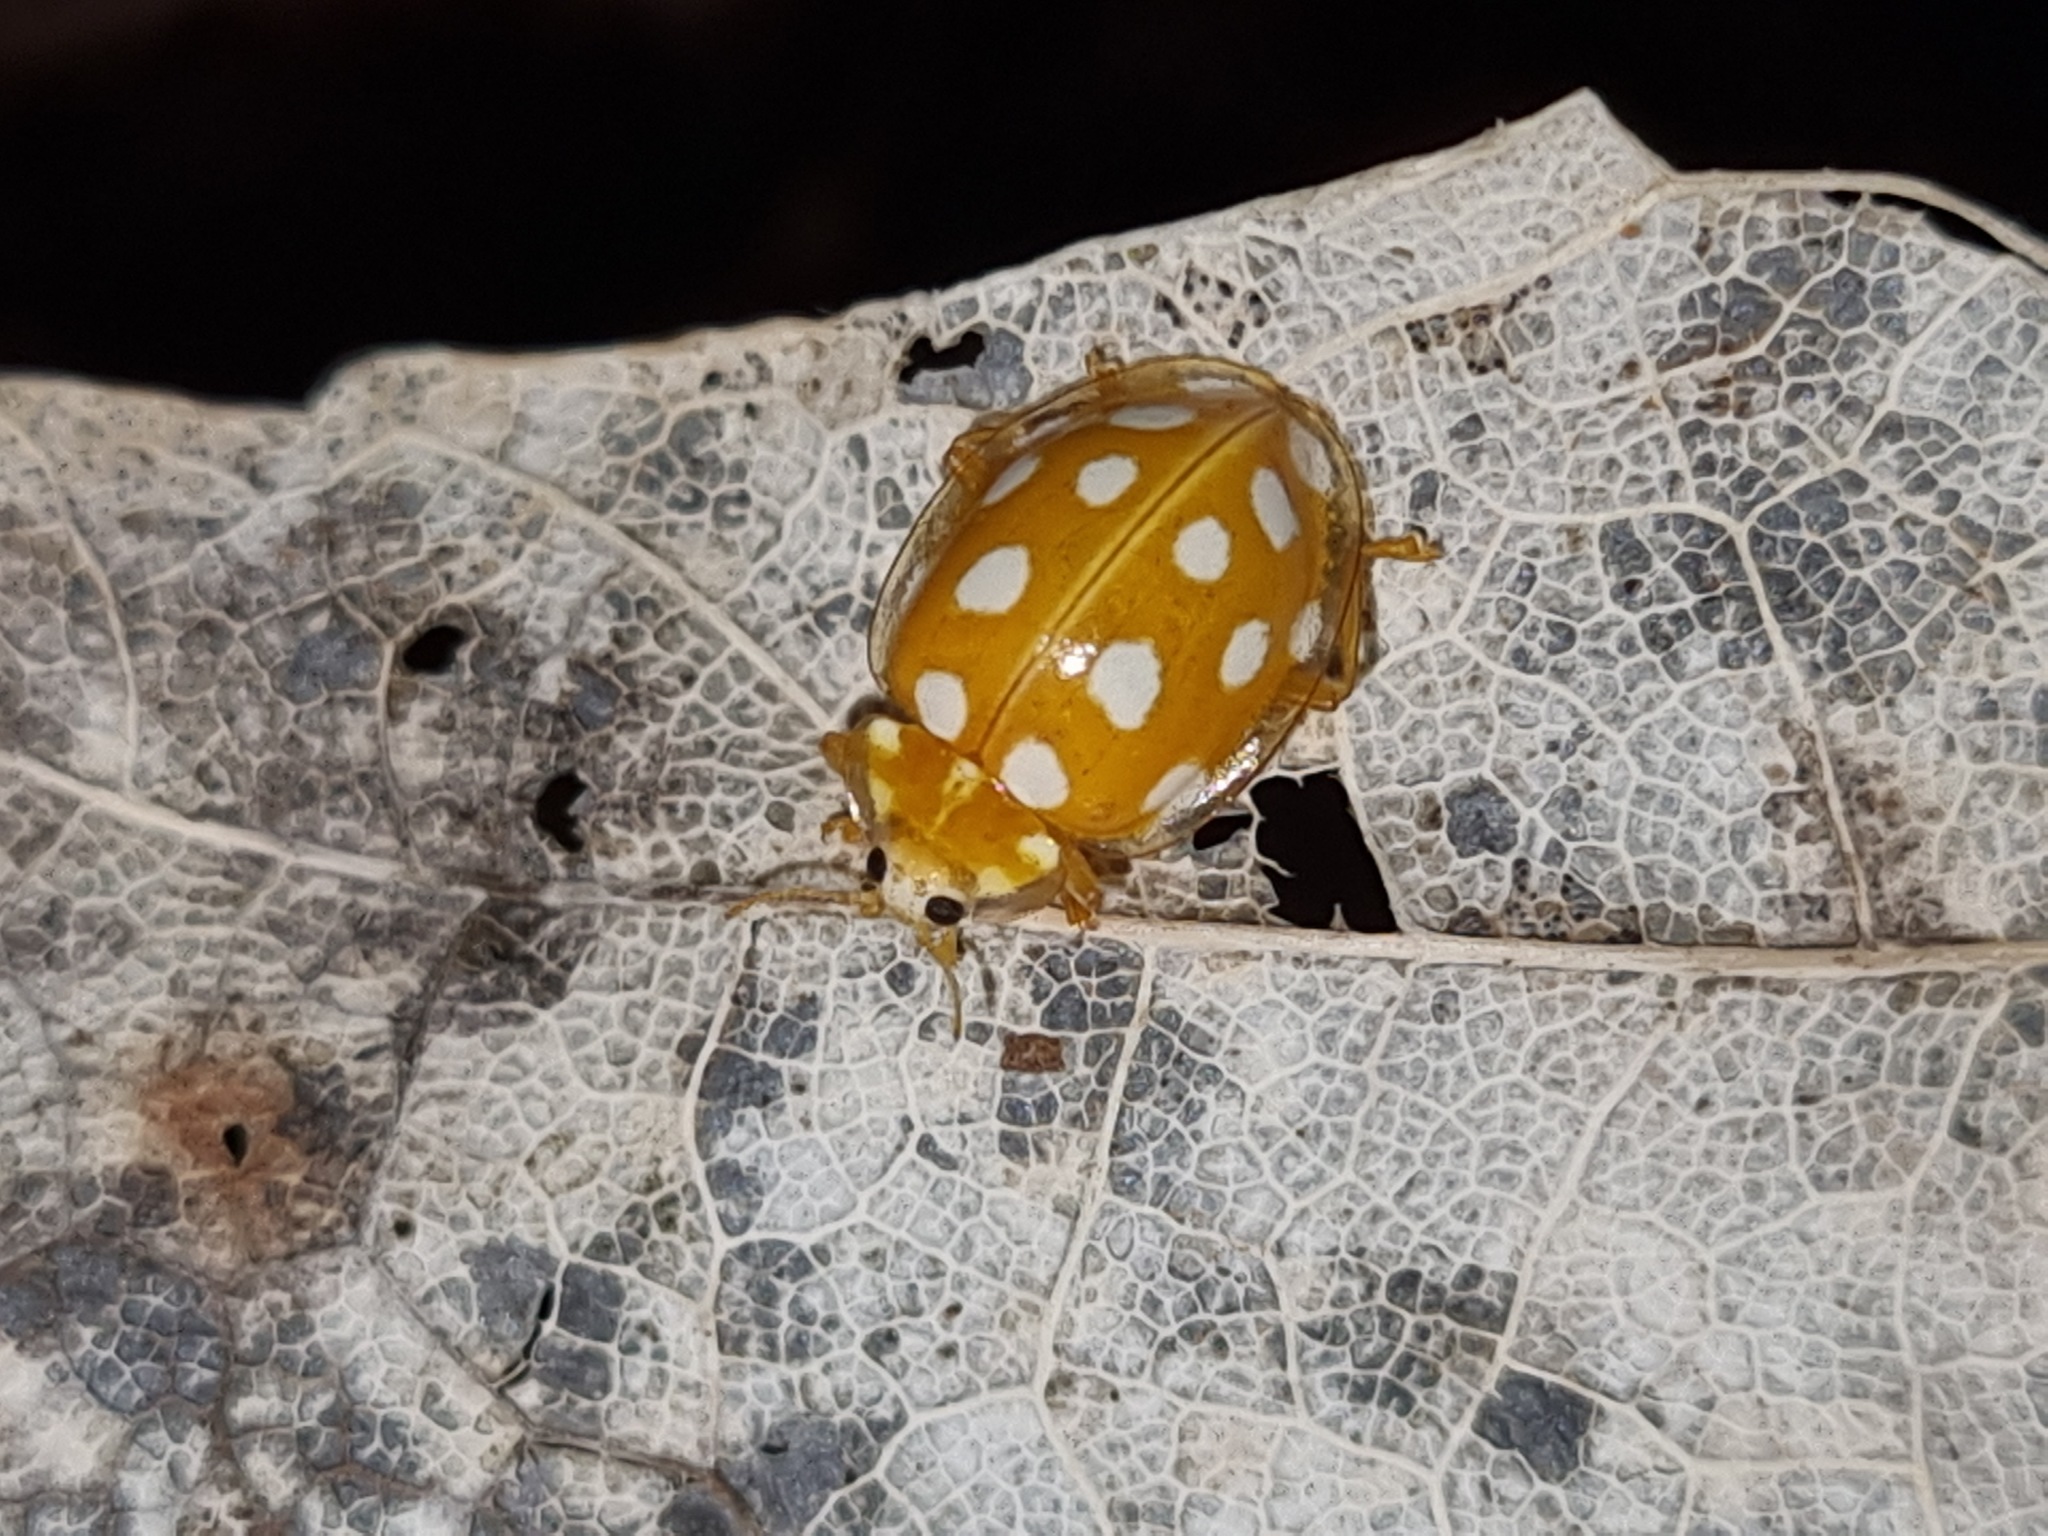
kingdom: Animalia
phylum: Arthropoda
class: Insecta
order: Coleoptera
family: Coccinellidae
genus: Halyzia
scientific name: Halyzia sedecimguttata
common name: Orange ladybird
